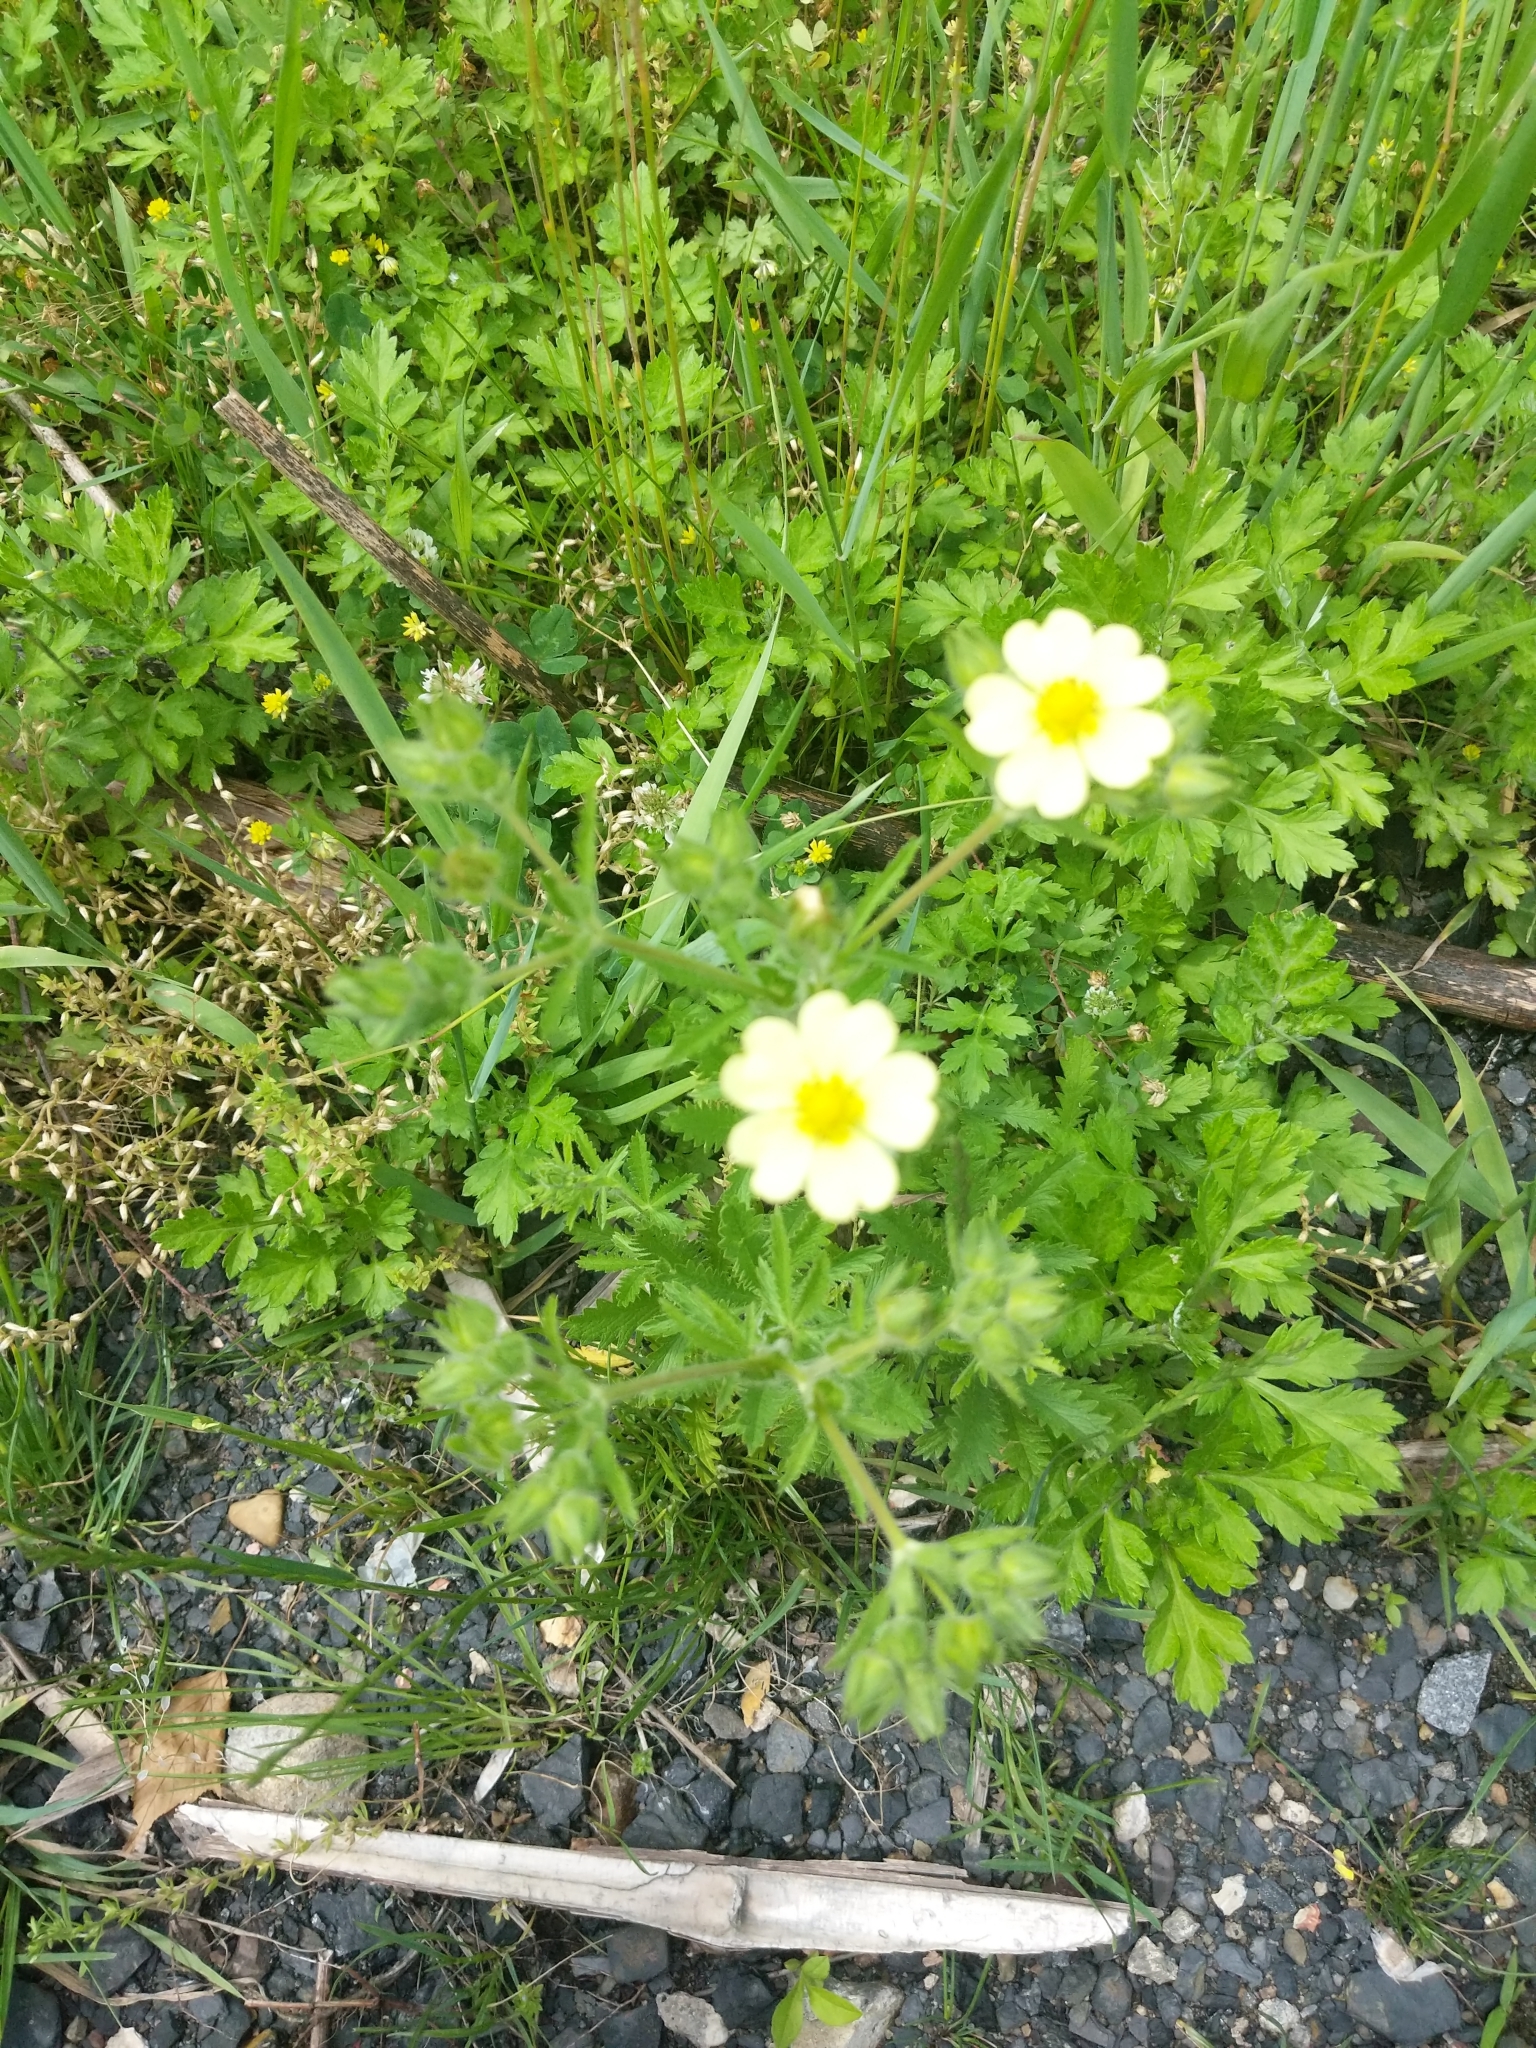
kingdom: Plantae
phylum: Tracheophyta
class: Magnoliopsida
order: Rosales
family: Rosaceae
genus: Potentilla
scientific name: Potentilla recta
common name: Sulphur cinquefoil
